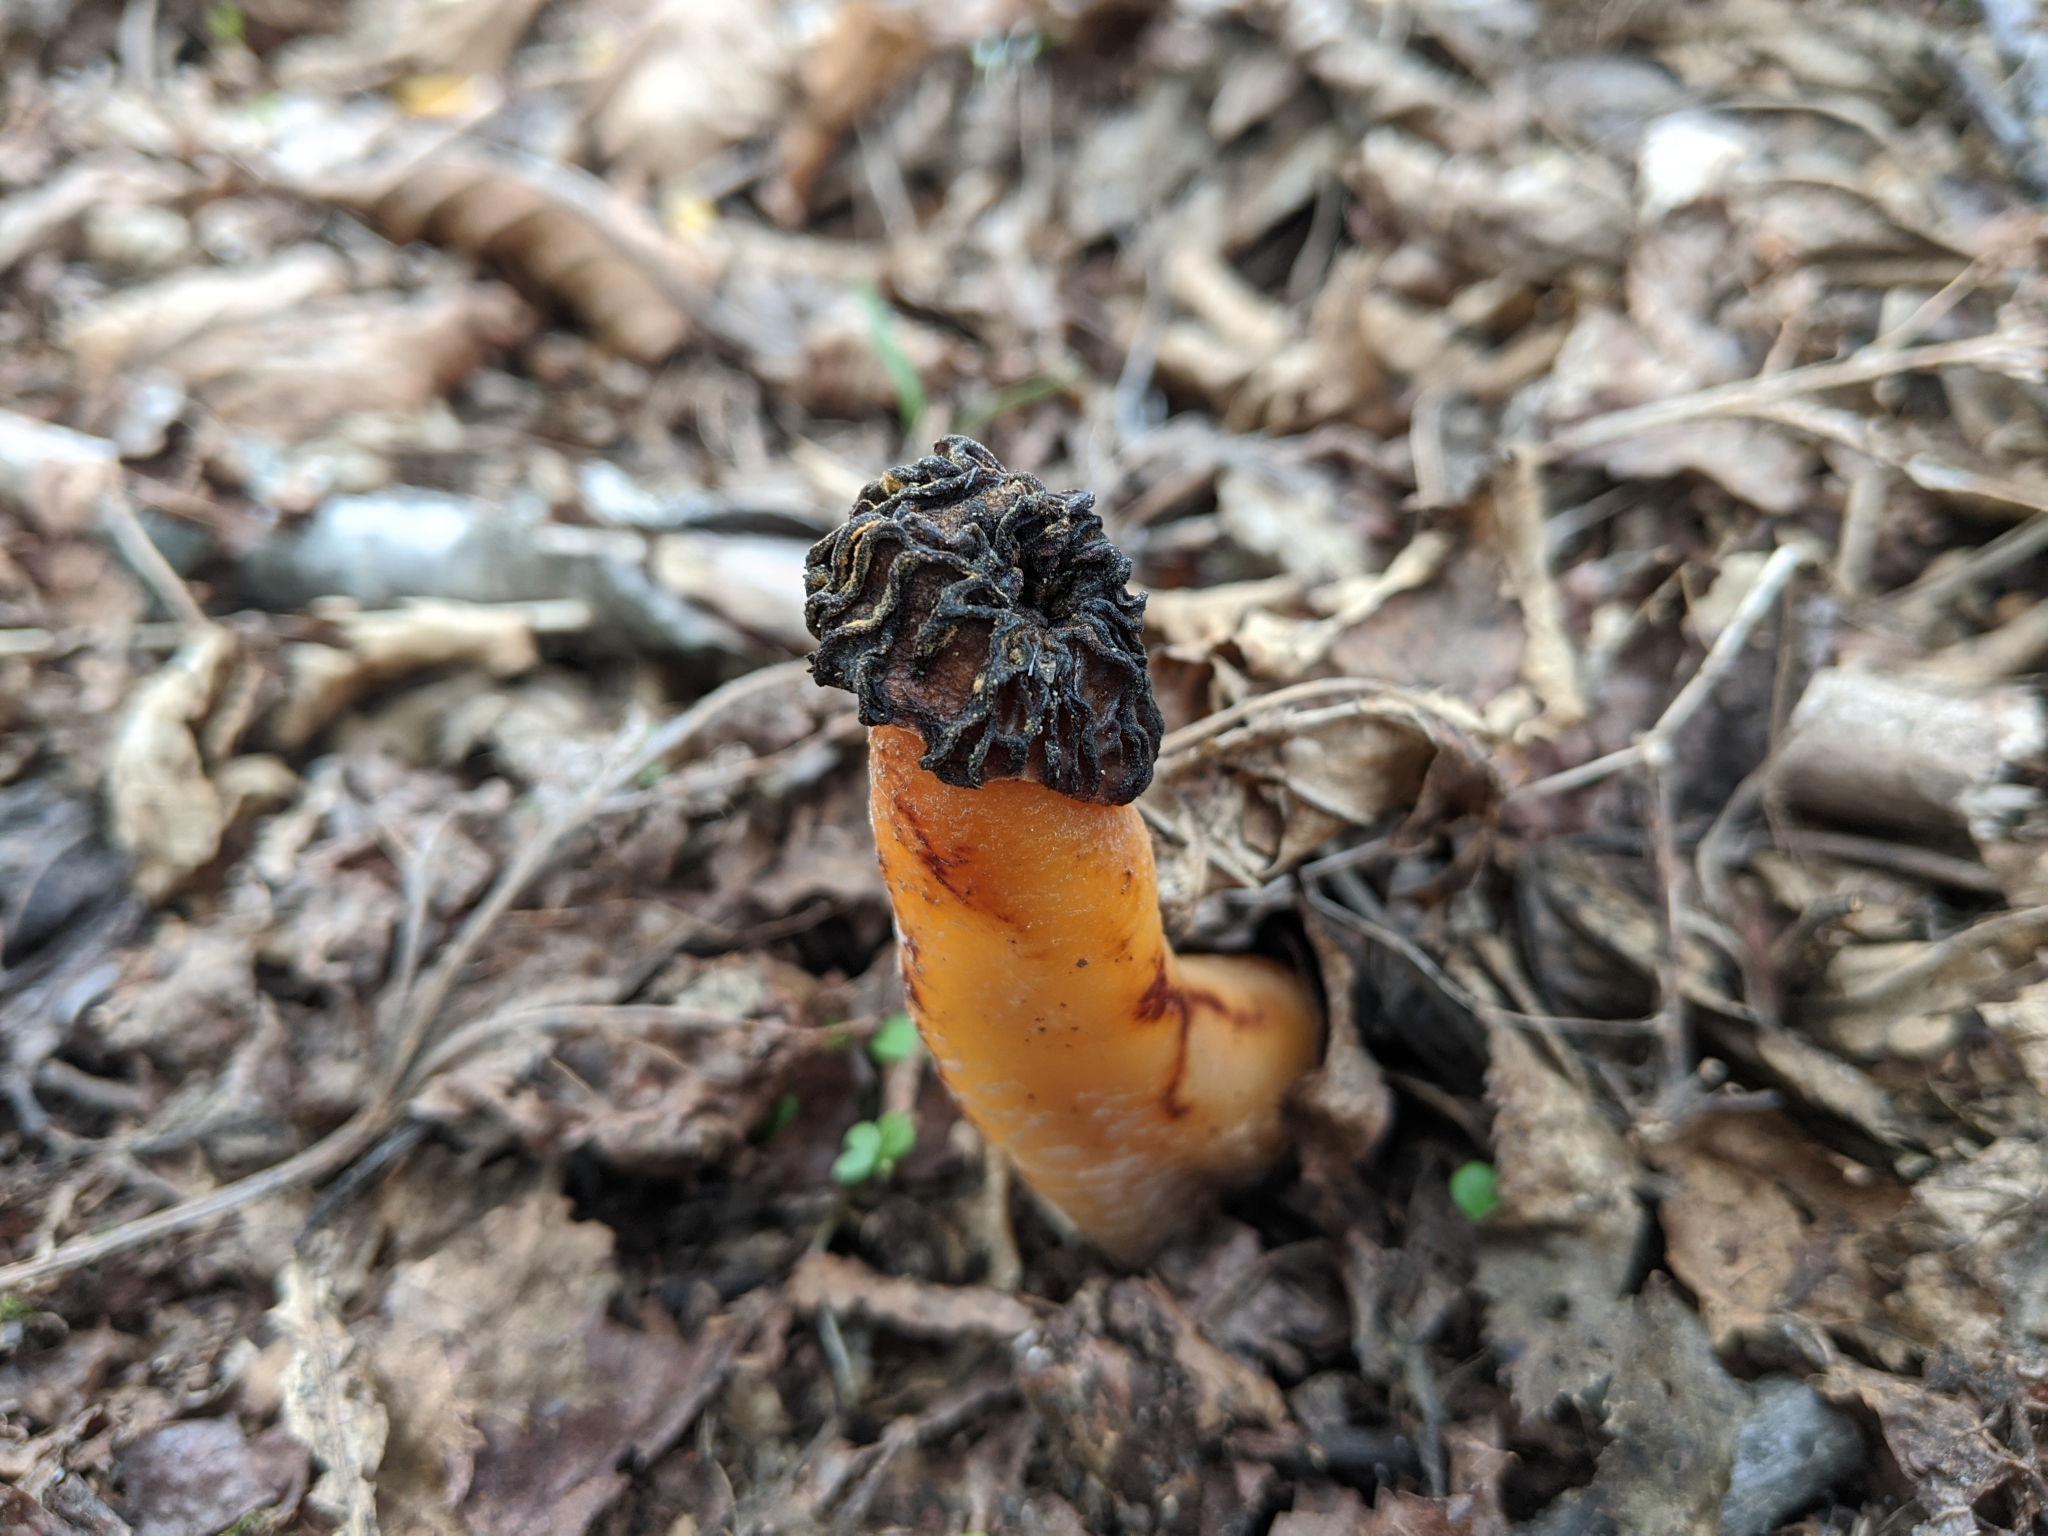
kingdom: Fungi
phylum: Ascomycota
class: Pezizomycetes
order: Pezizales
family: Morchellaceae
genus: Verpa
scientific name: Verpa bohemica
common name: Wrinkled thimble morel
